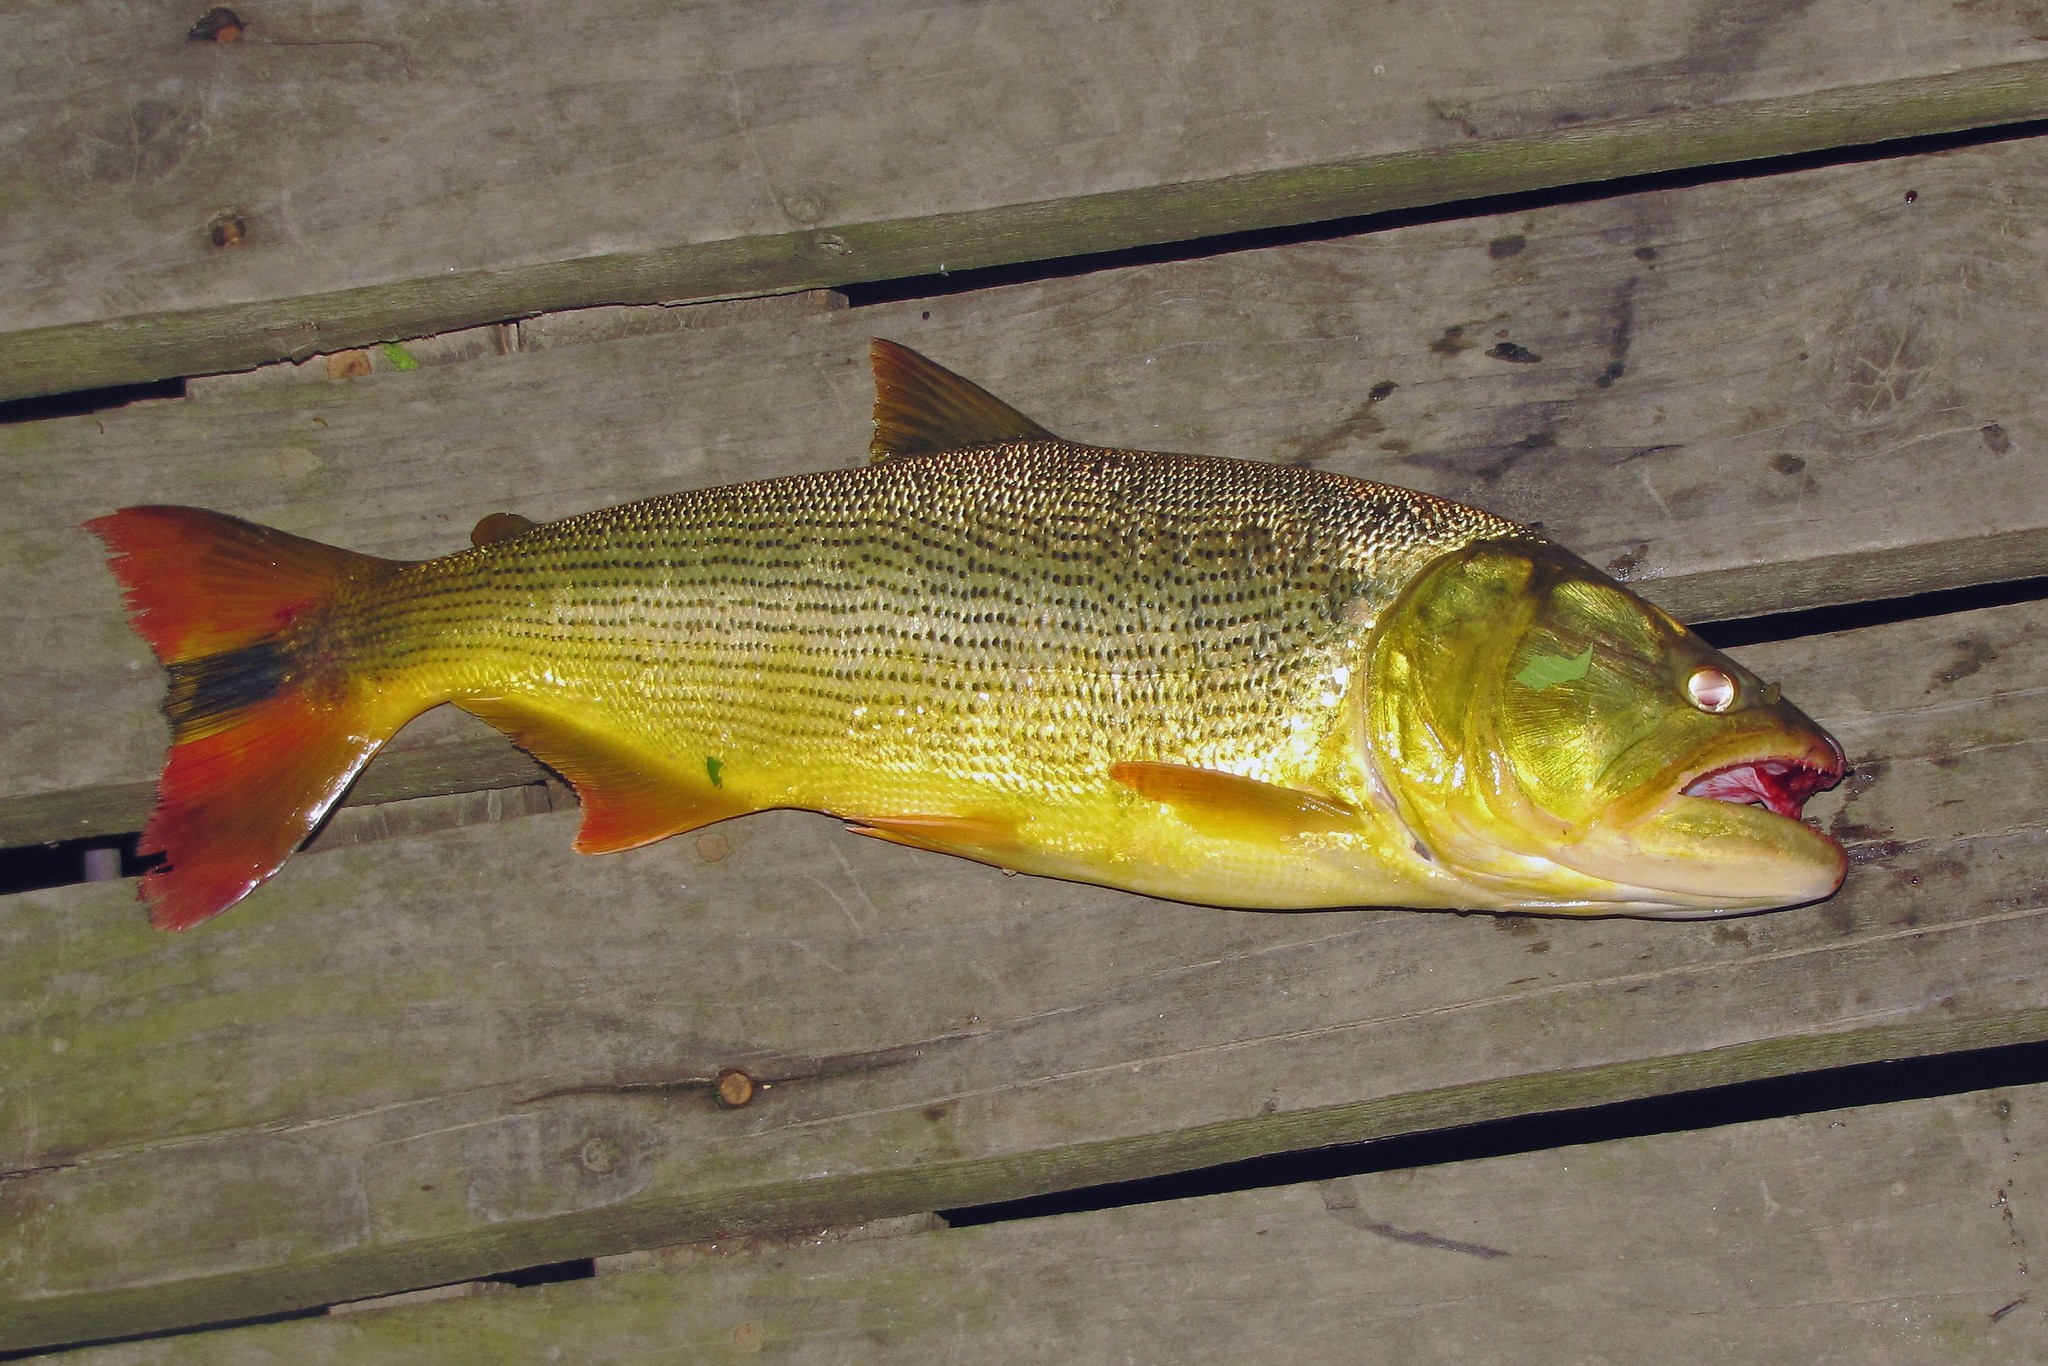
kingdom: Animalia
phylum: Chordata
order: Characiformes
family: Bryconidae
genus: Salminus
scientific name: Salminus brasiliensis
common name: Dorado
